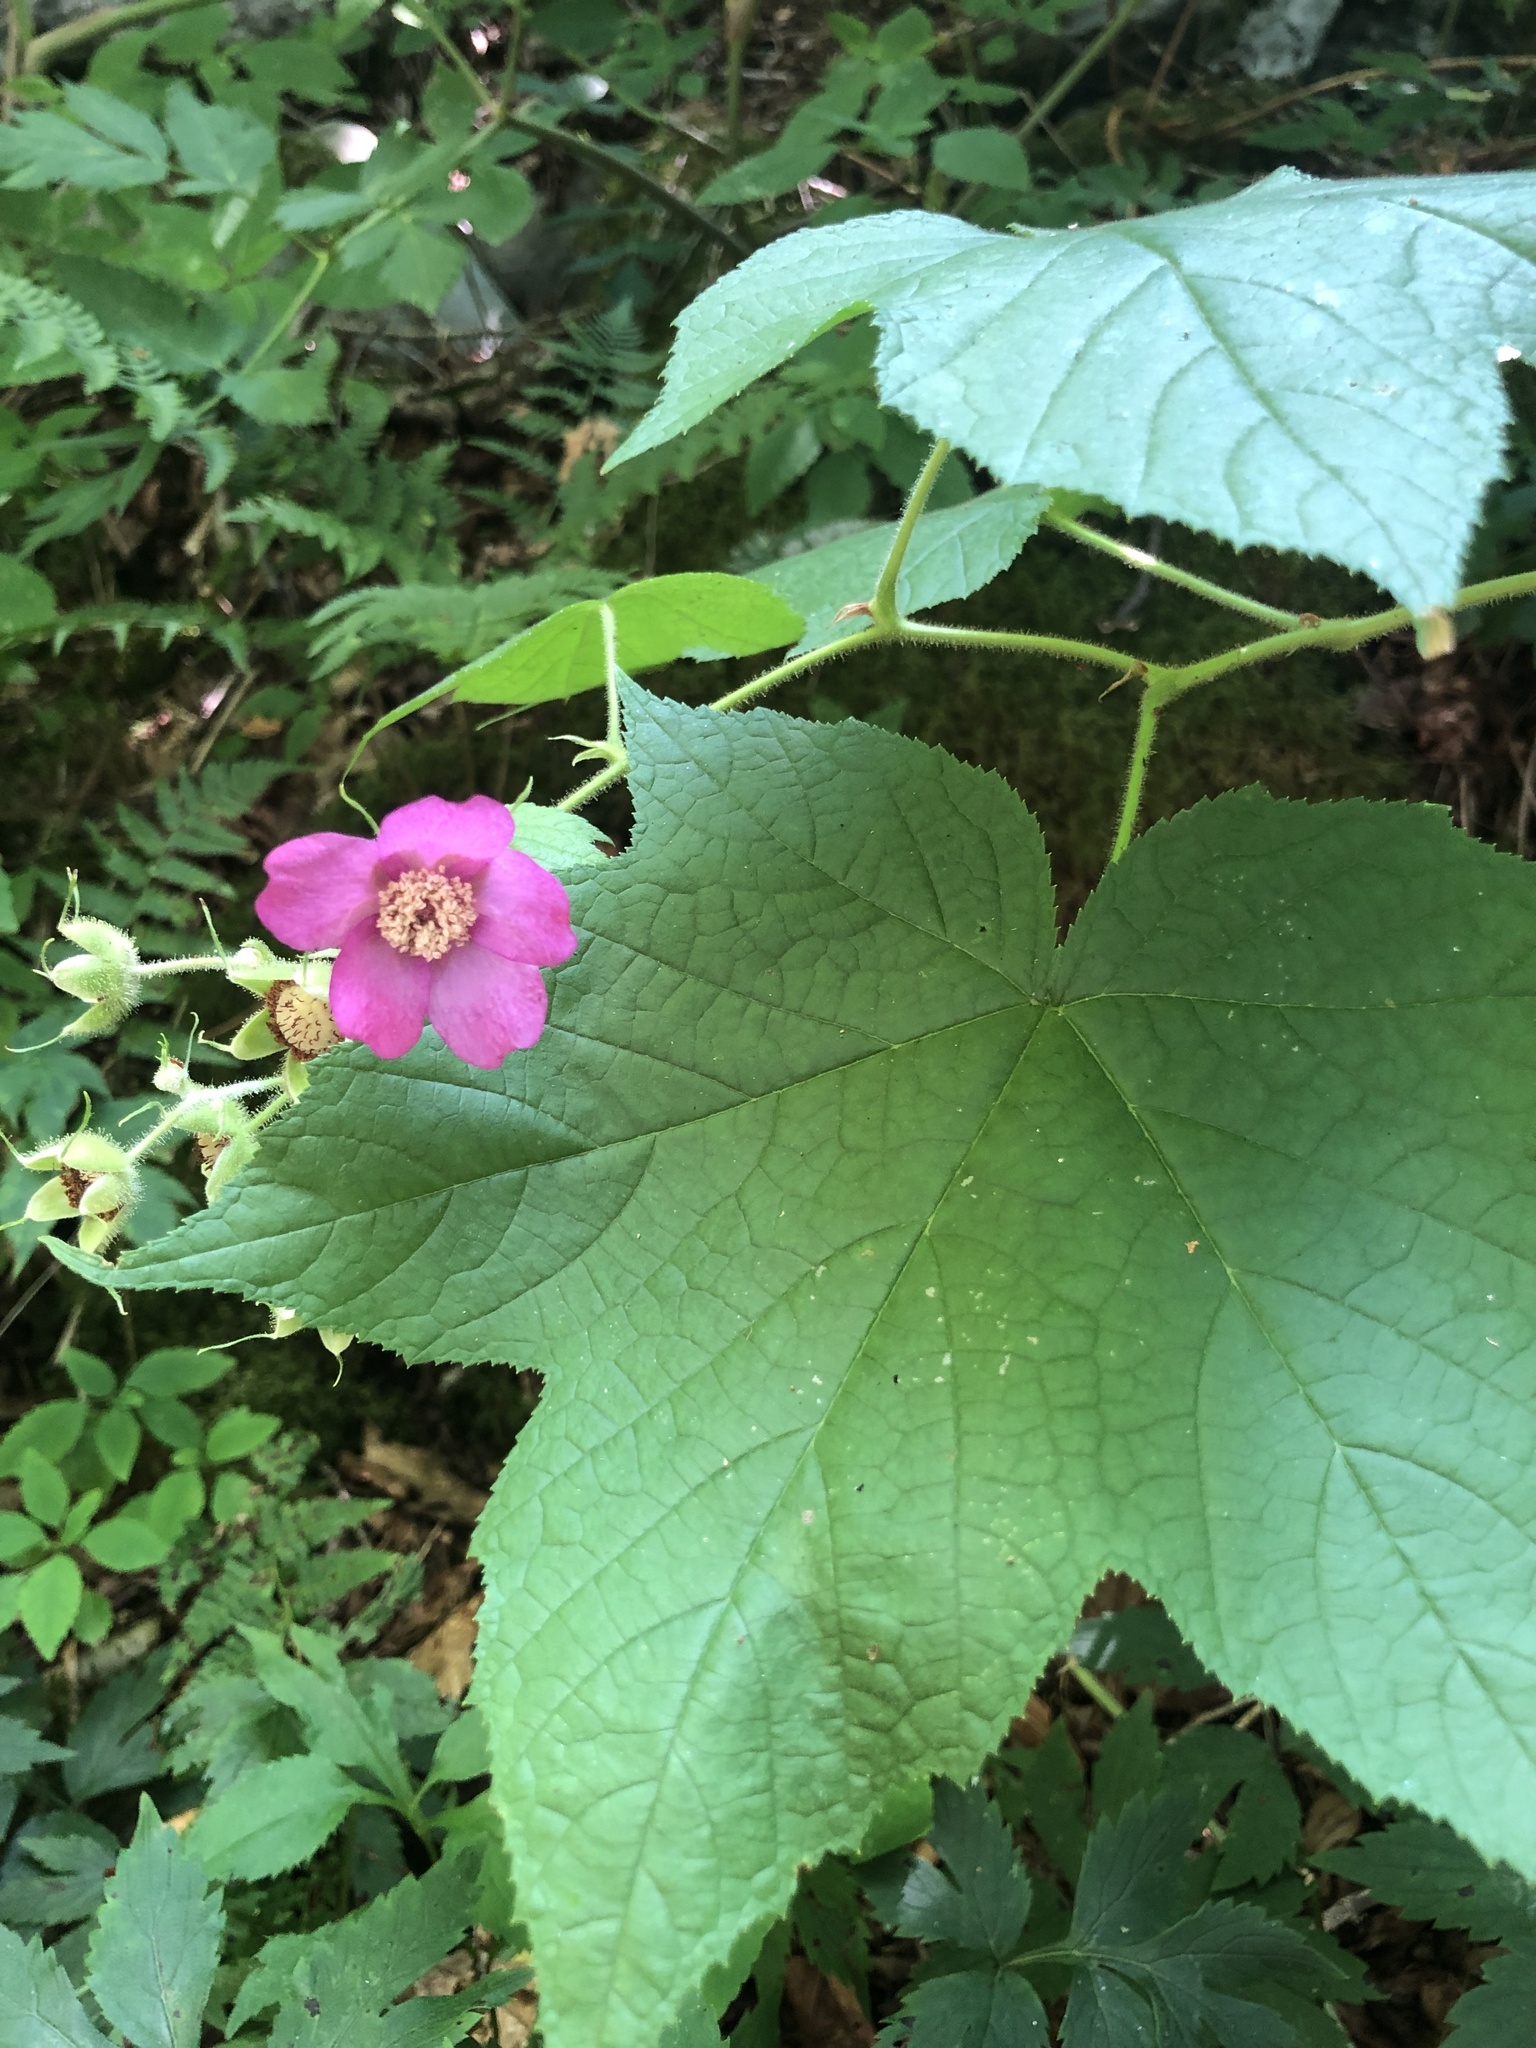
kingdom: Plantae
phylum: Tracheophyta
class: Magnoliopsida
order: Rosales
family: Rosaceae
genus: Rubus
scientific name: Rubus odoratus
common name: Purple-flowered raspberry
